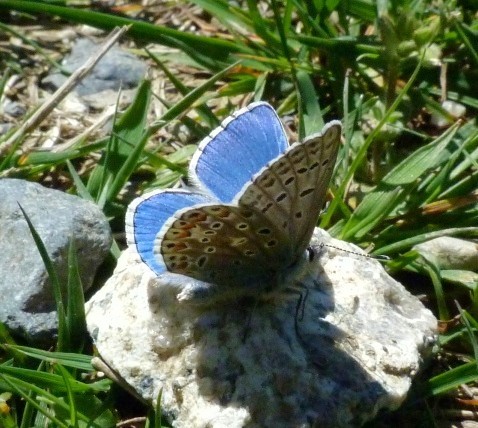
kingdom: Animalia
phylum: Arthropoda
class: Insecta
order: Lepidoptera
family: Lycaenidae
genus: Lysandra
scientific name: Lysandra bellargus
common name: Adonis blue
